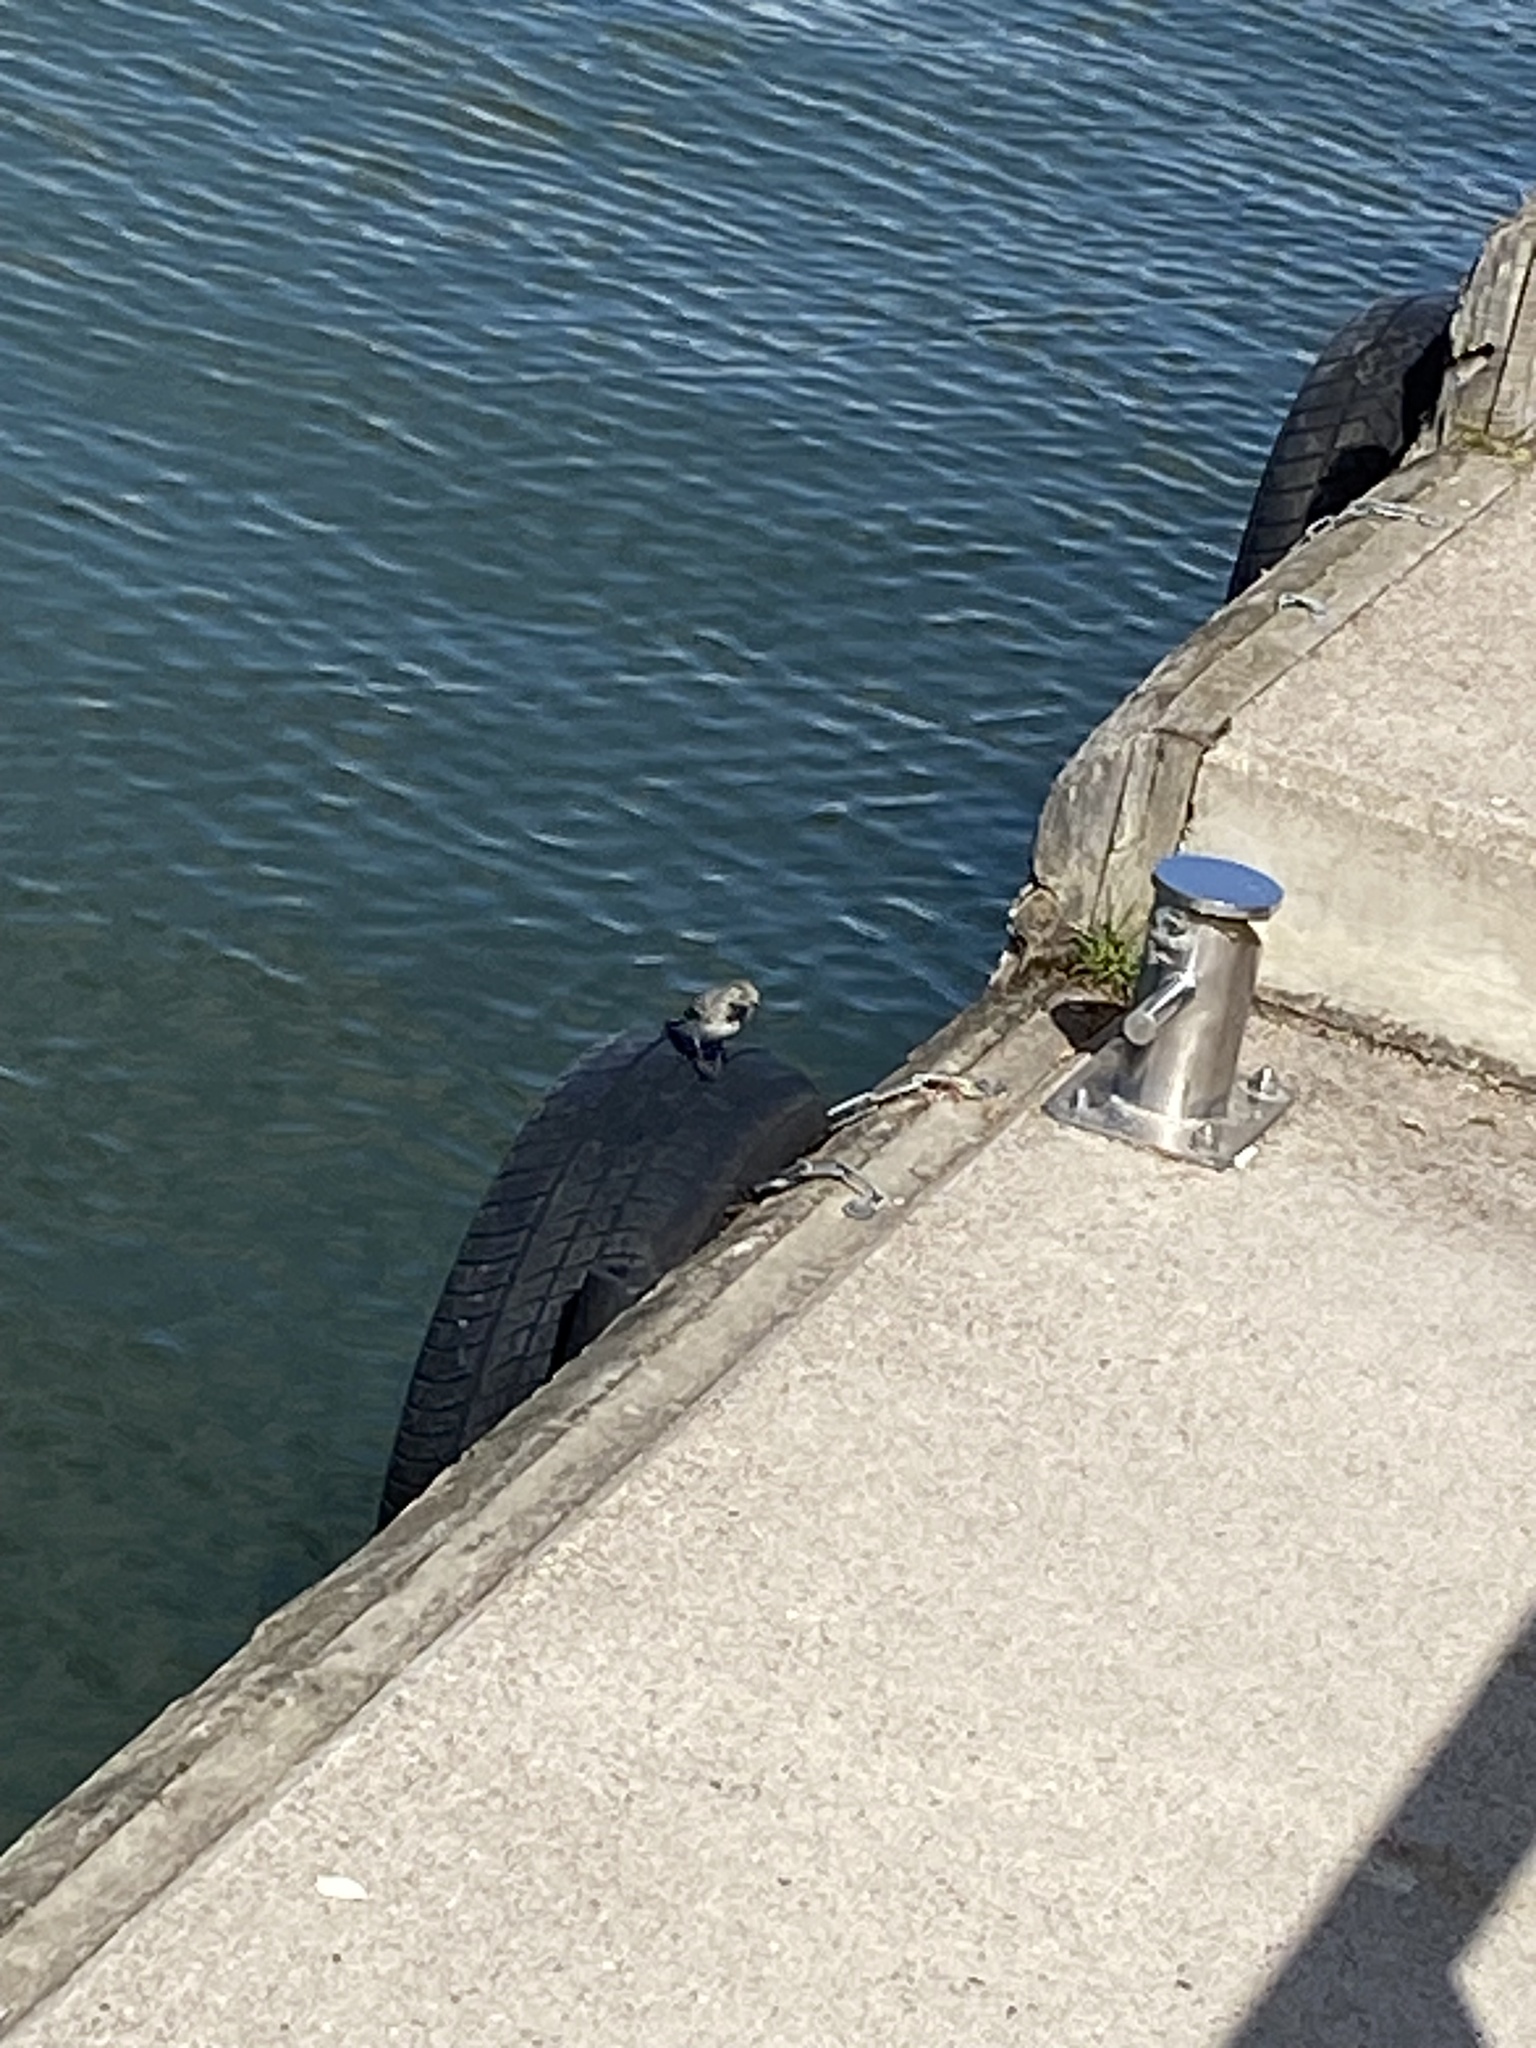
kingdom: Animalia
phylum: Chordata
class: Aves
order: Passeriformes
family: Motacillidae
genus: Motacilla
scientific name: Motacilla alba
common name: White wagtail
